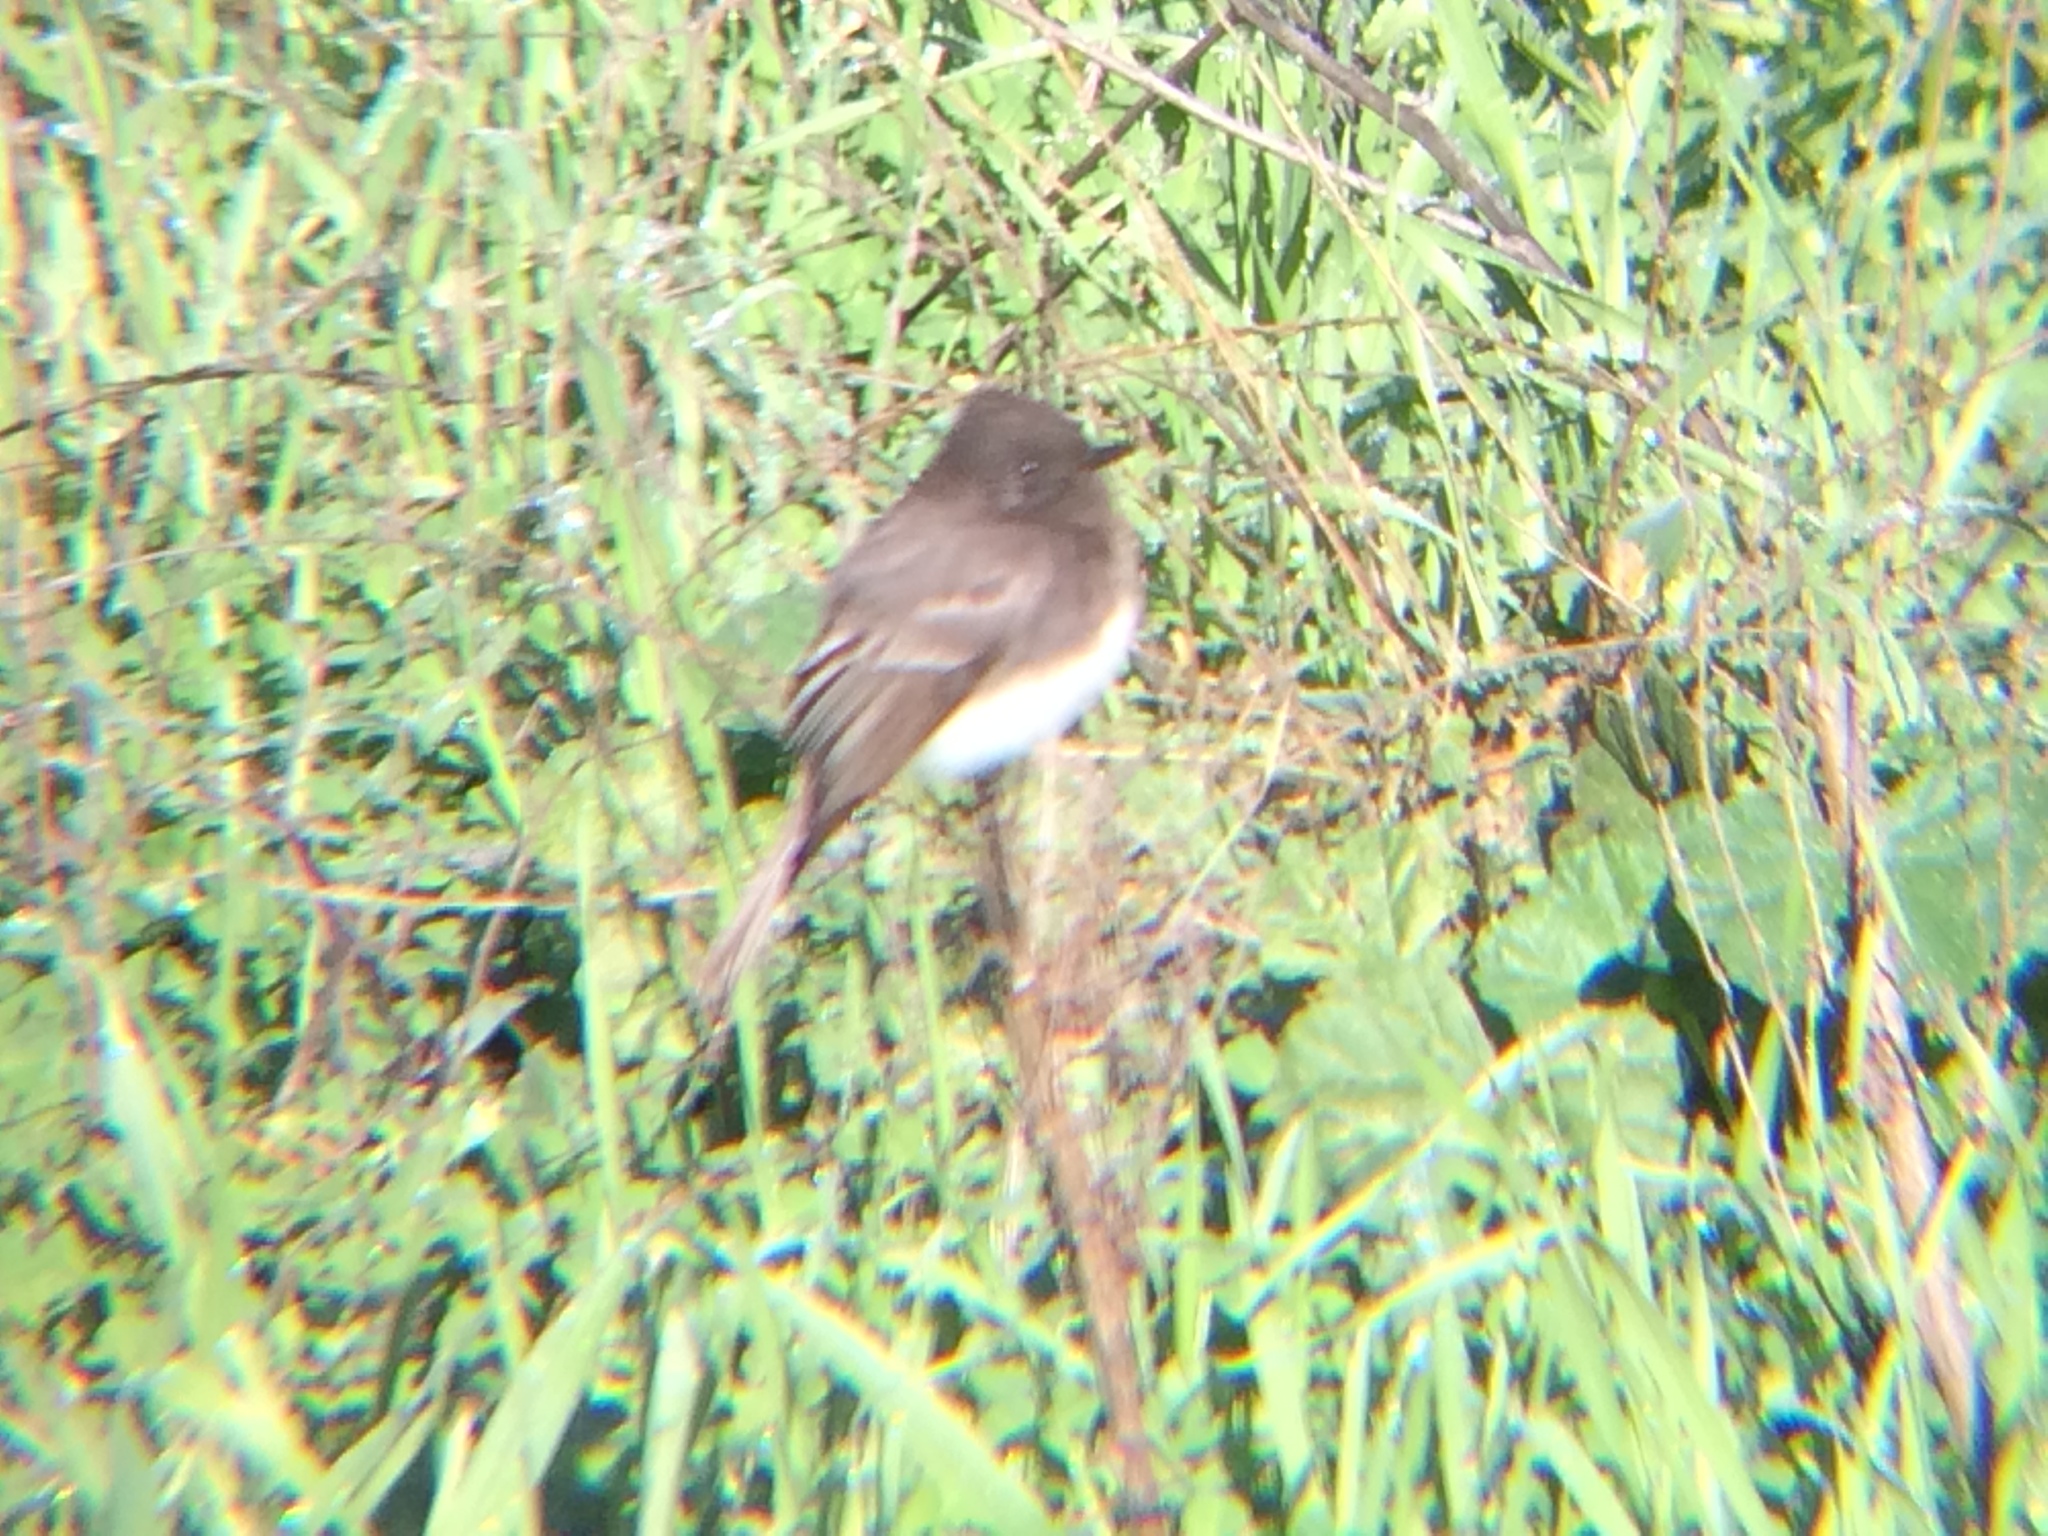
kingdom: Animalia
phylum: Chordata
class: Aves
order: Passeriformes
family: Tyrannidae
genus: Sayornis
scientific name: Sayornis nigricans
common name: Black phoebe
